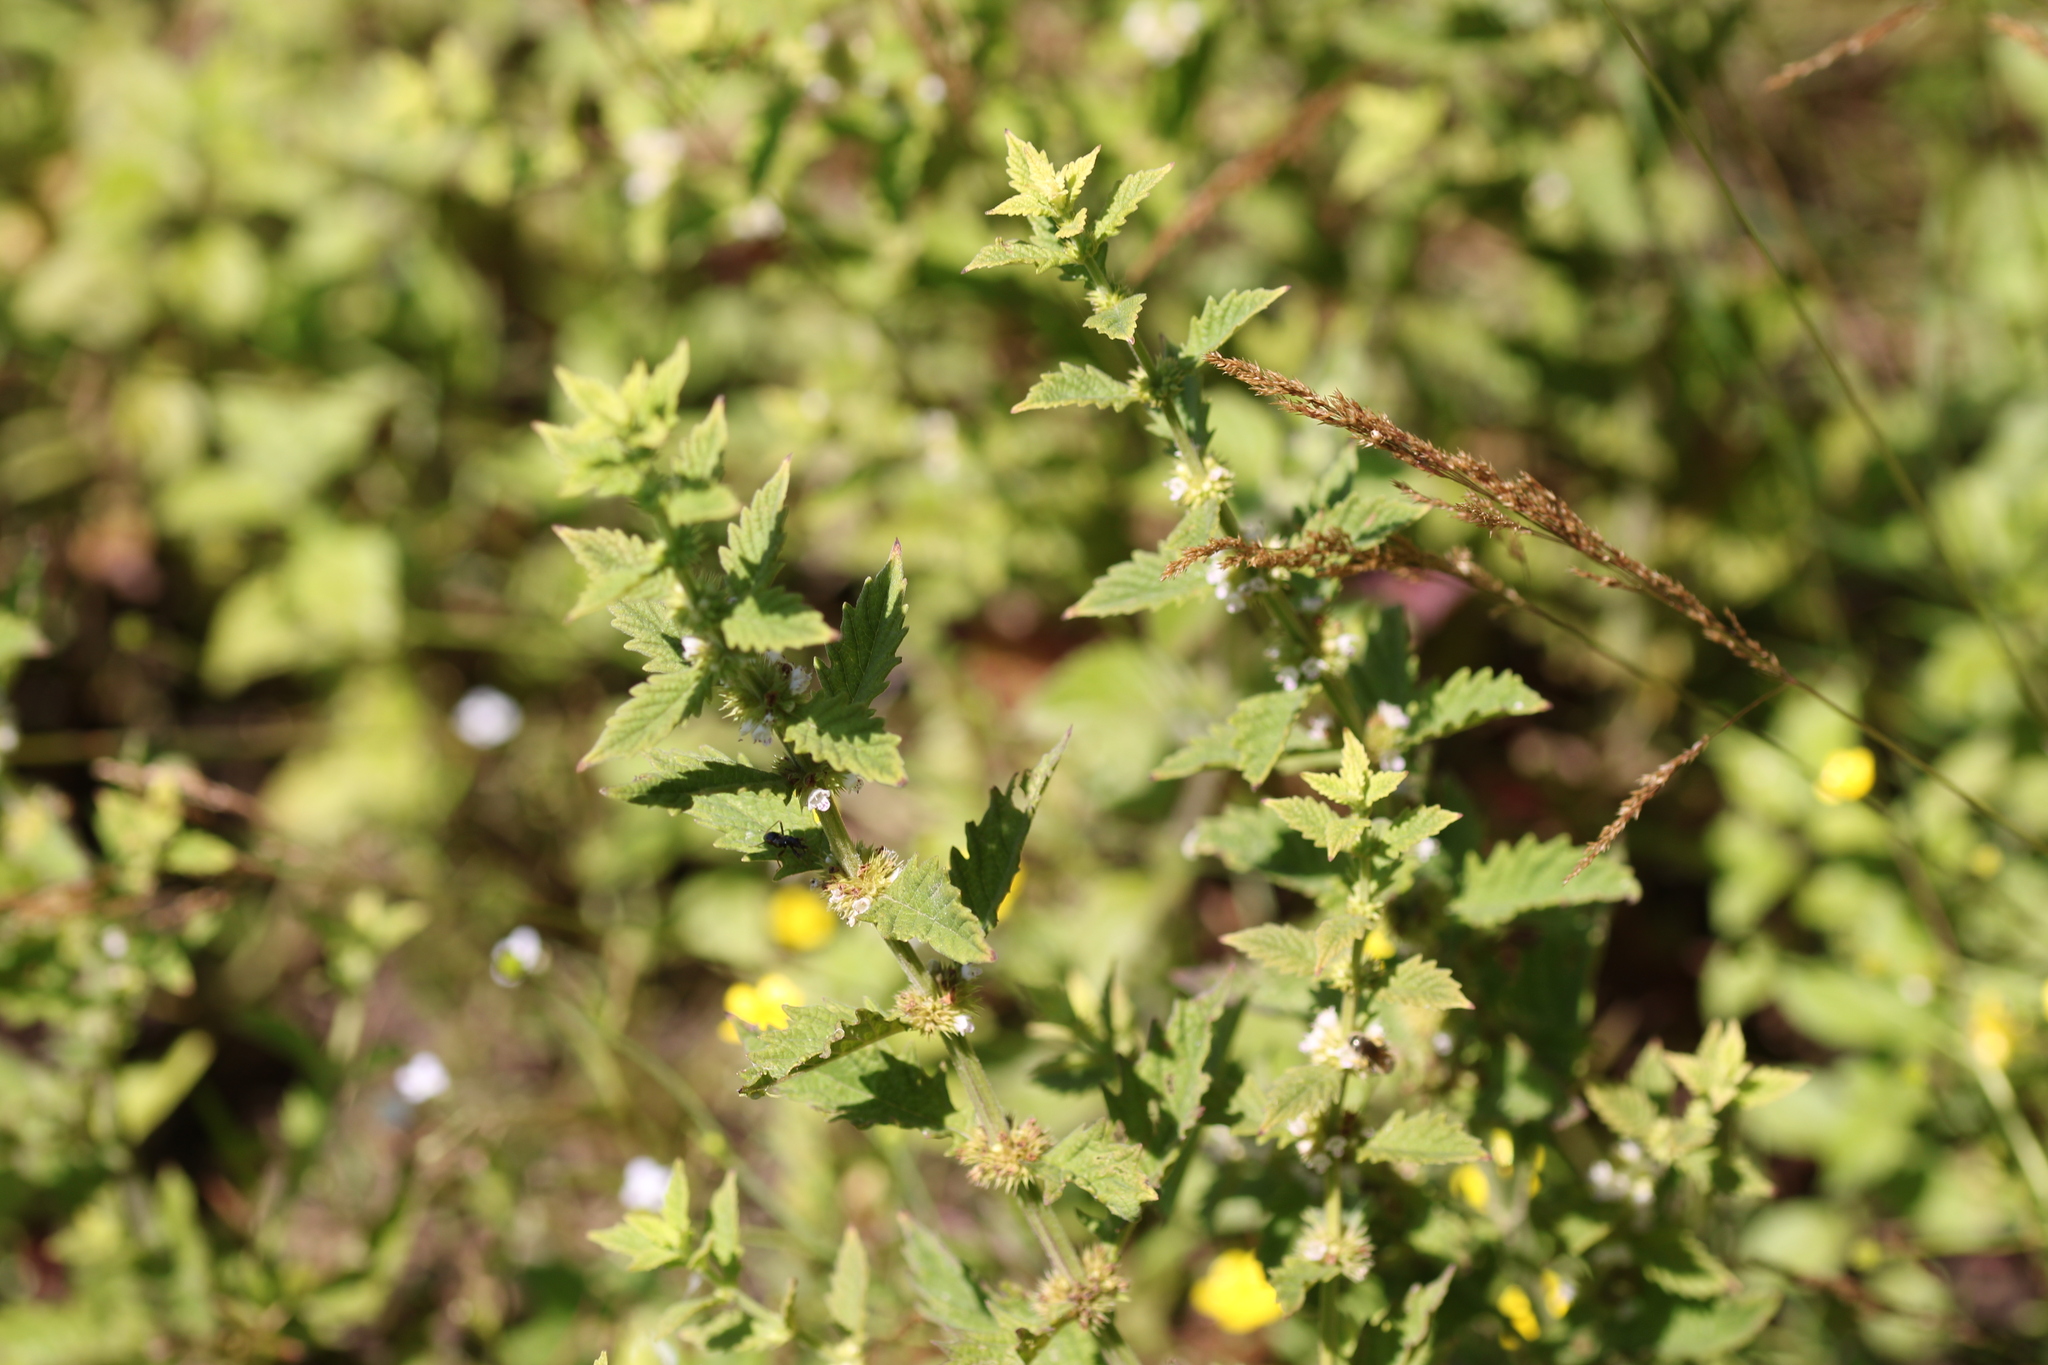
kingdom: Plantae
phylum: Tracheophyta
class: Magnoliopsida
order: Lamiales
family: Lamiaceae
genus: Lycopus
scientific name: Lycopus europaeus
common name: European bugleweed
